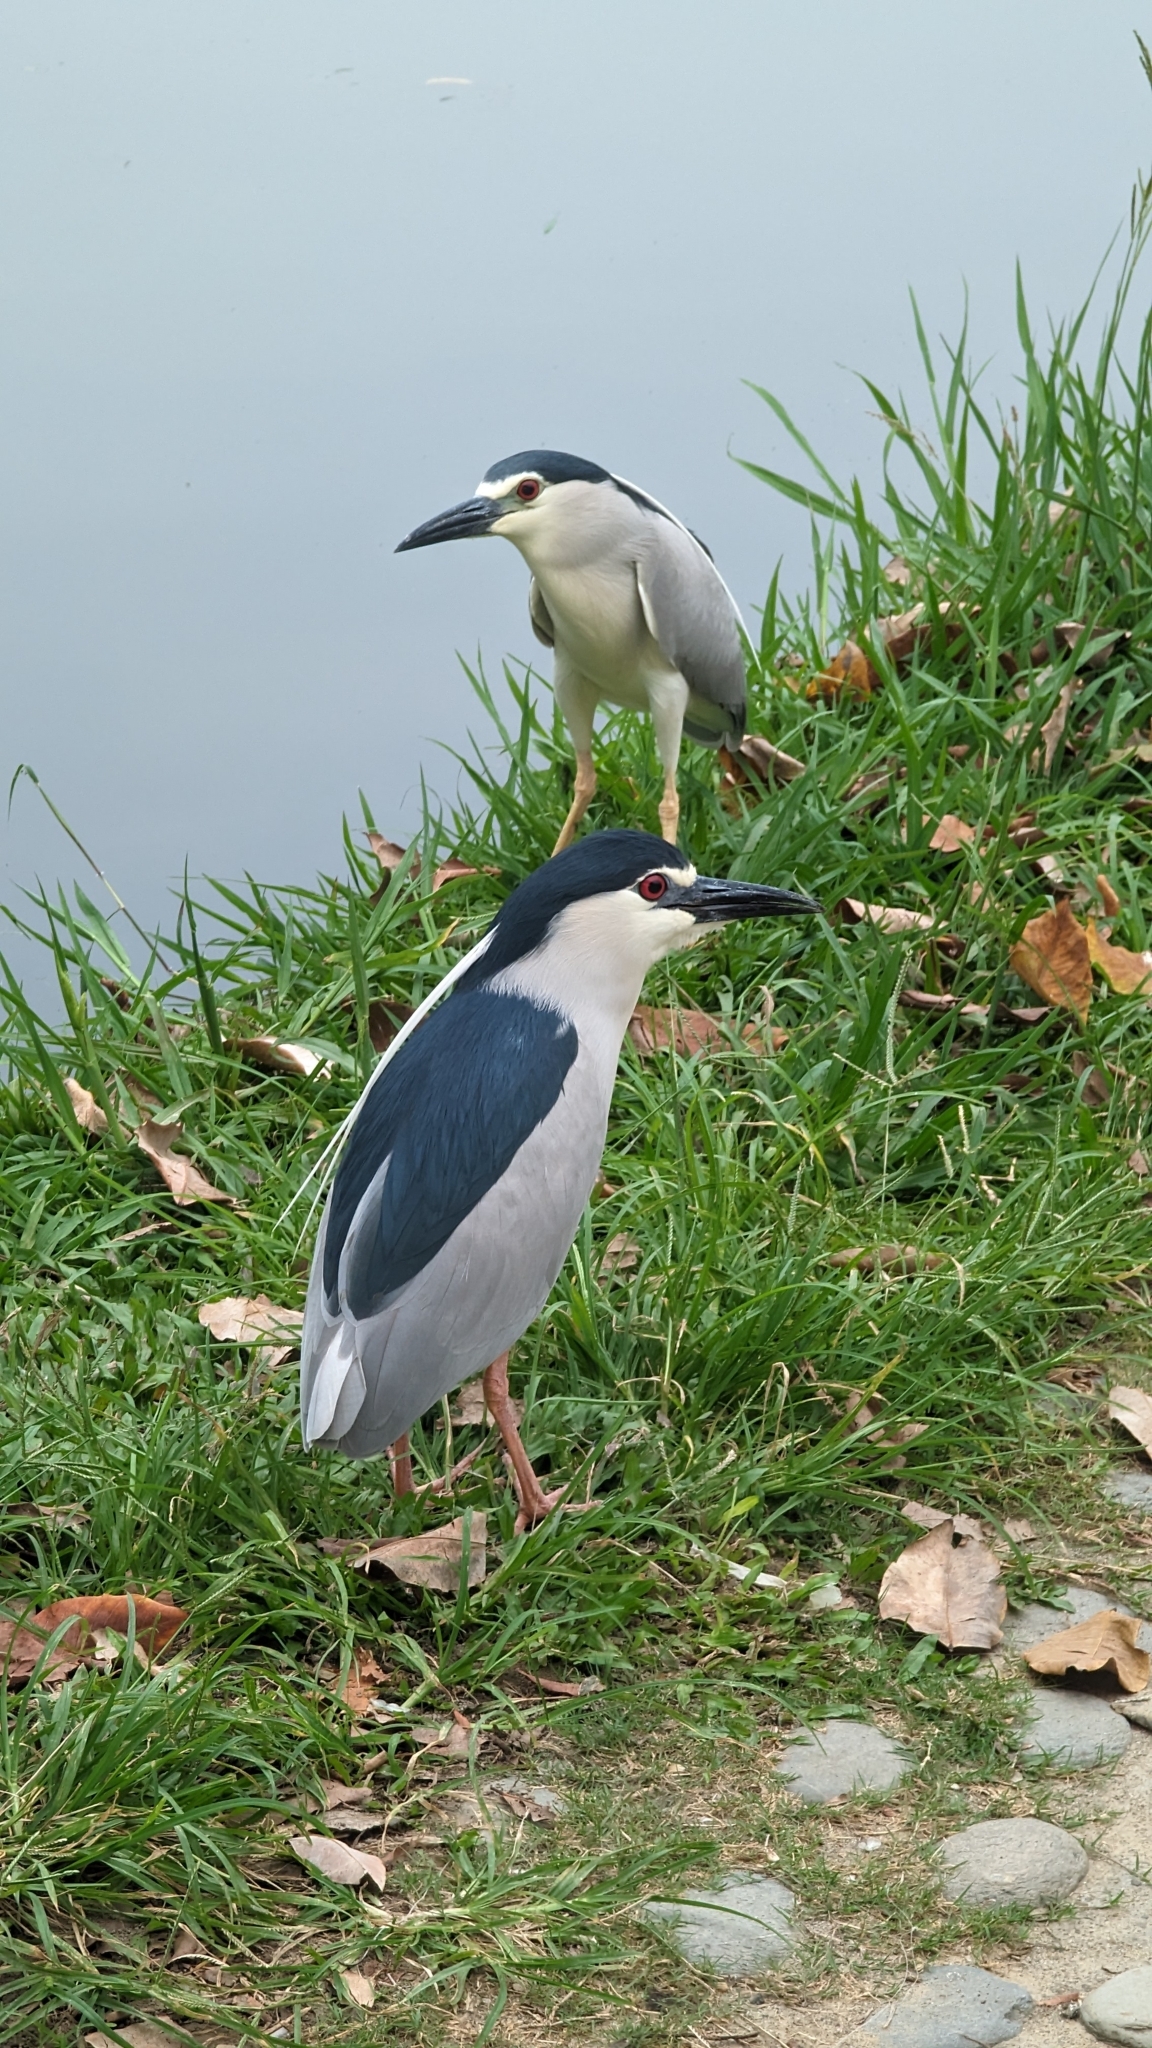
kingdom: Animalia
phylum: Chordata
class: Aves
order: Pelecaniformes
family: Ardeidae
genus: Nycticorax
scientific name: Nycticorax nycticorax
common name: Black-crowned night heron
